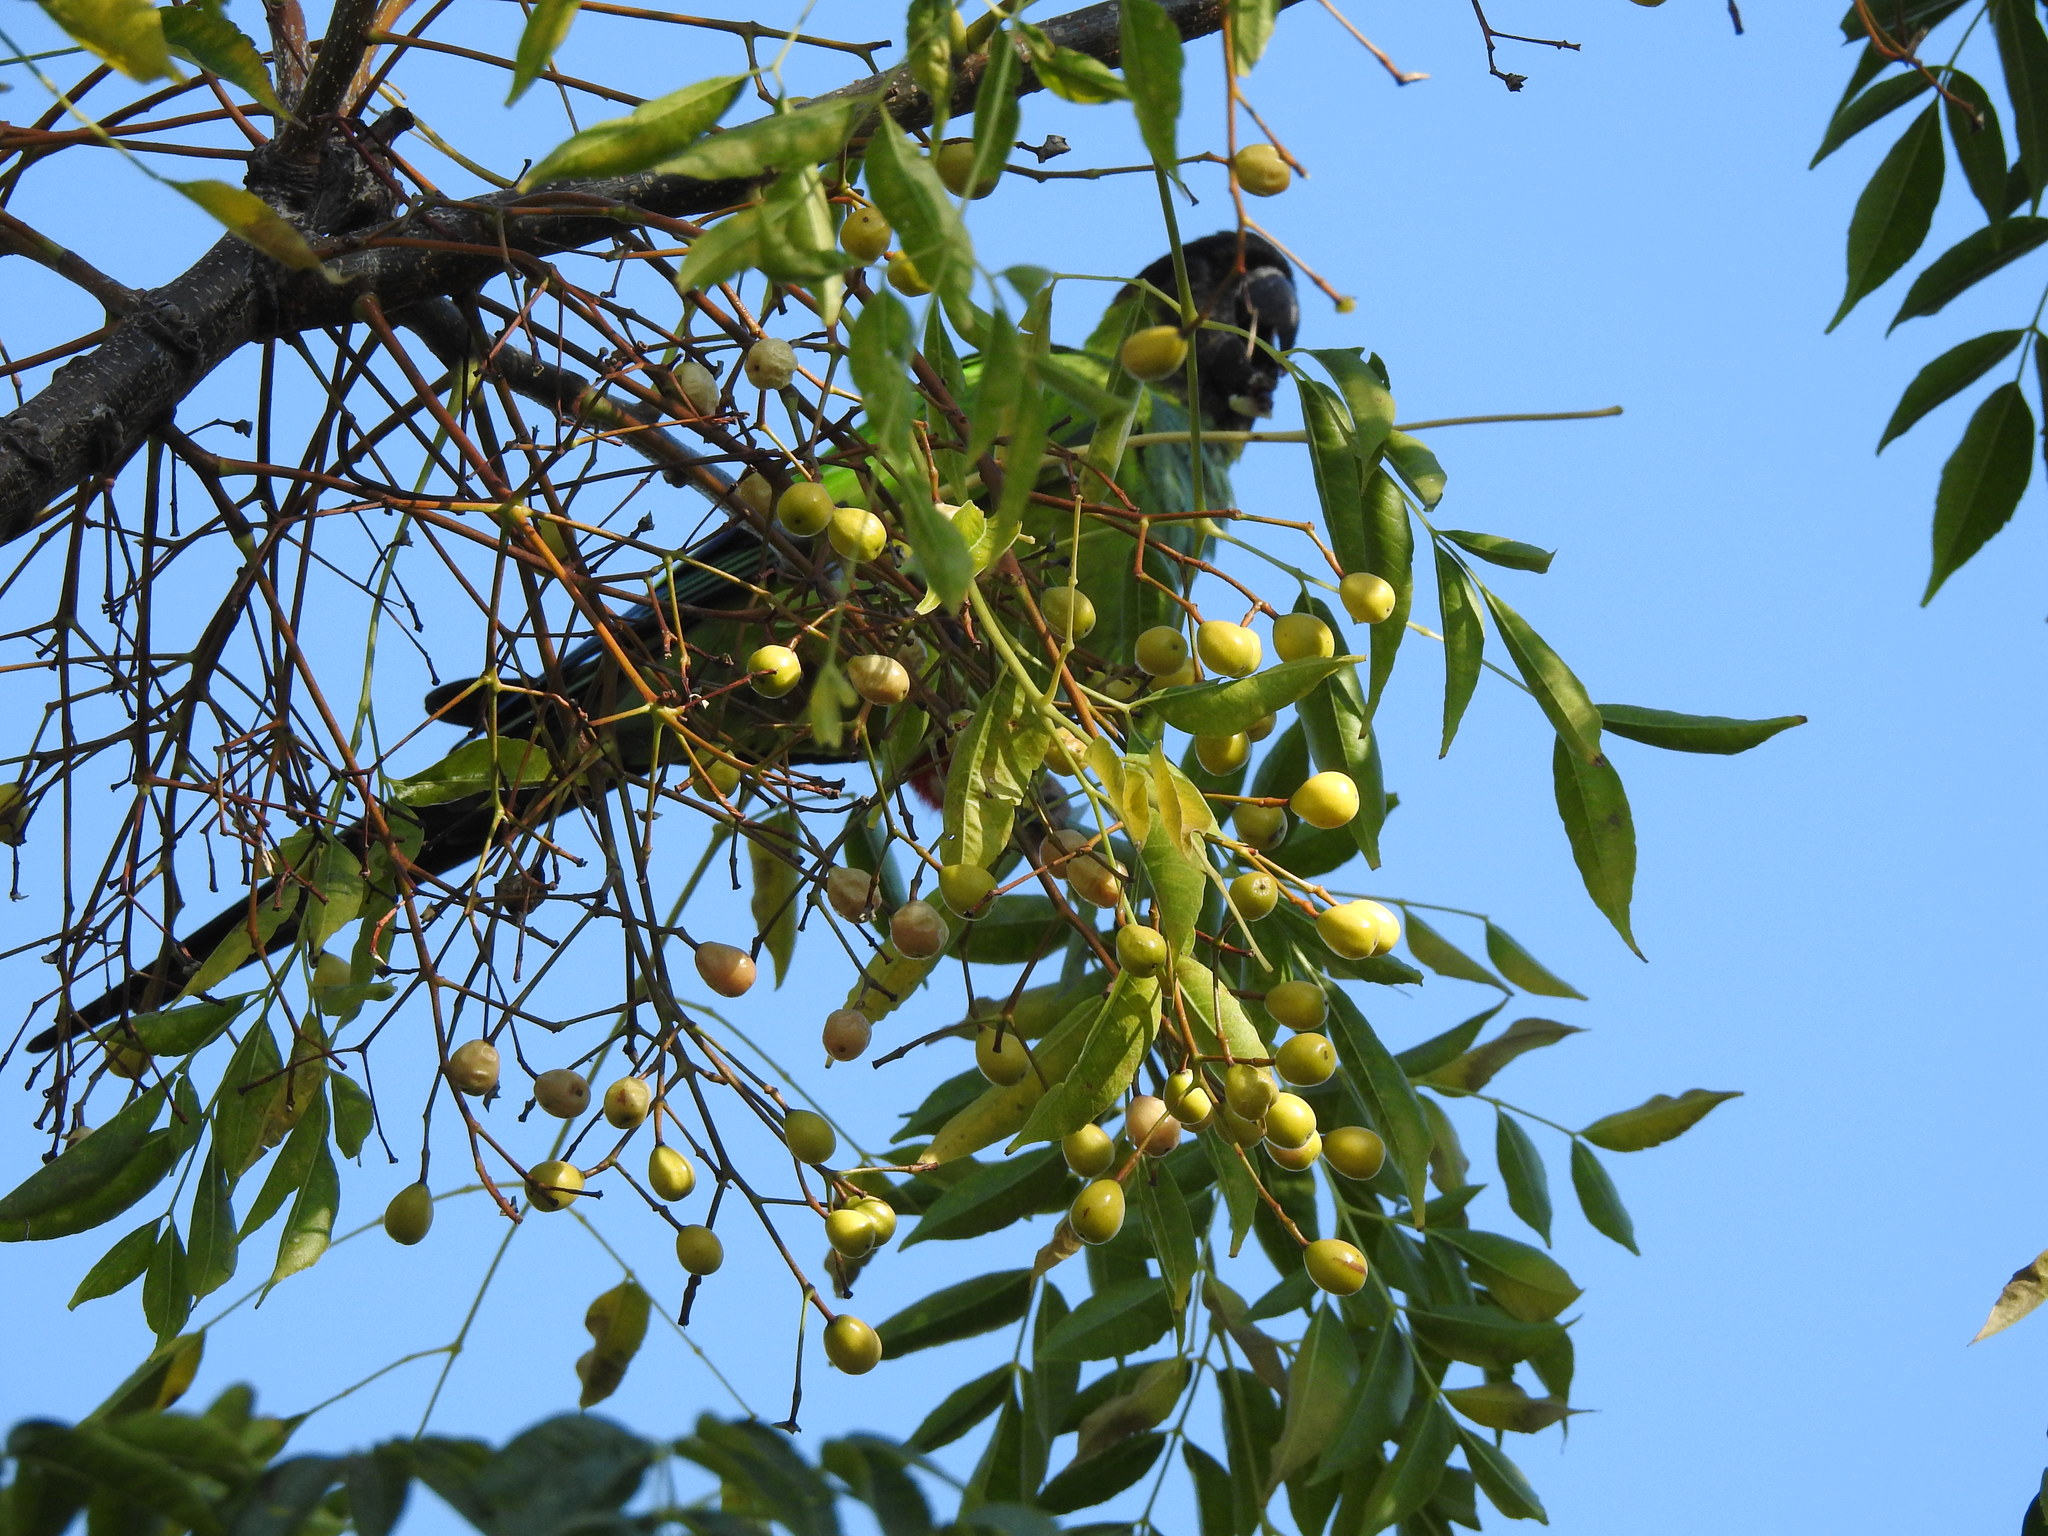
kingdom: Animalia
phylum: Chordata
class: Aves
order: Psittaciformes
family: Psittacidae
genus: Nandayus
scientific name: Nandayus nenday
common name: Nanday parakeet
